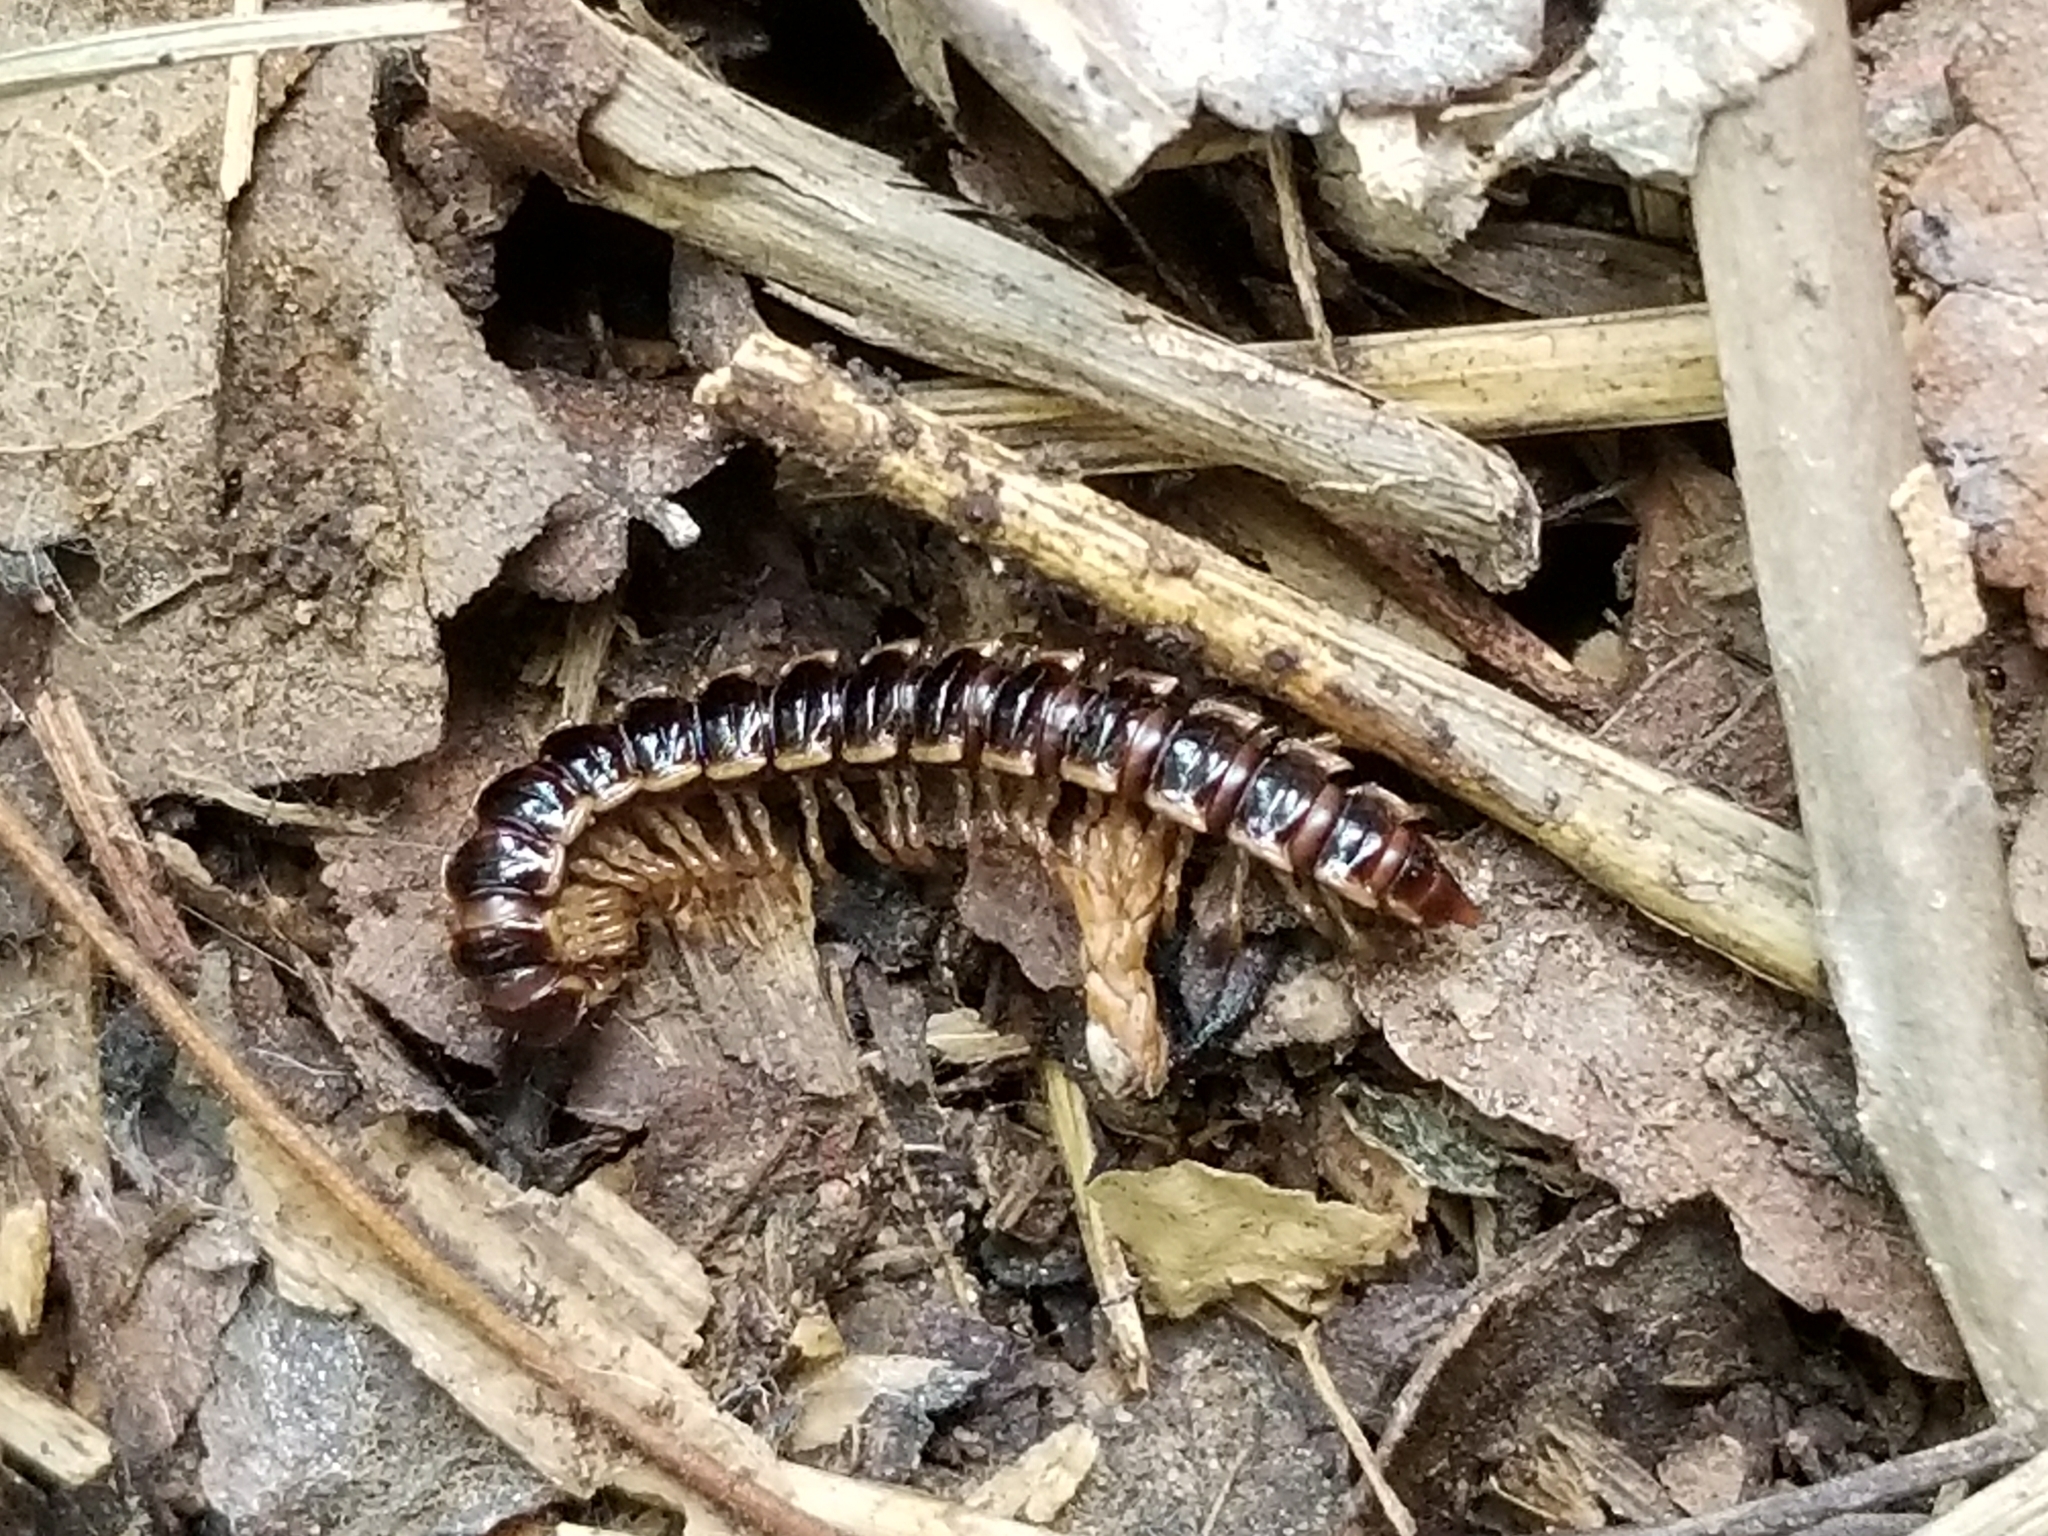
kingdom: Animalia
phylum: Arthropoda
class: Diplopoda
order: Polydesmida
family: Paradoxosomatidae
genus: Oxidus
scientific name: Oxidus gracilis
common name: Greenhouse millipede
